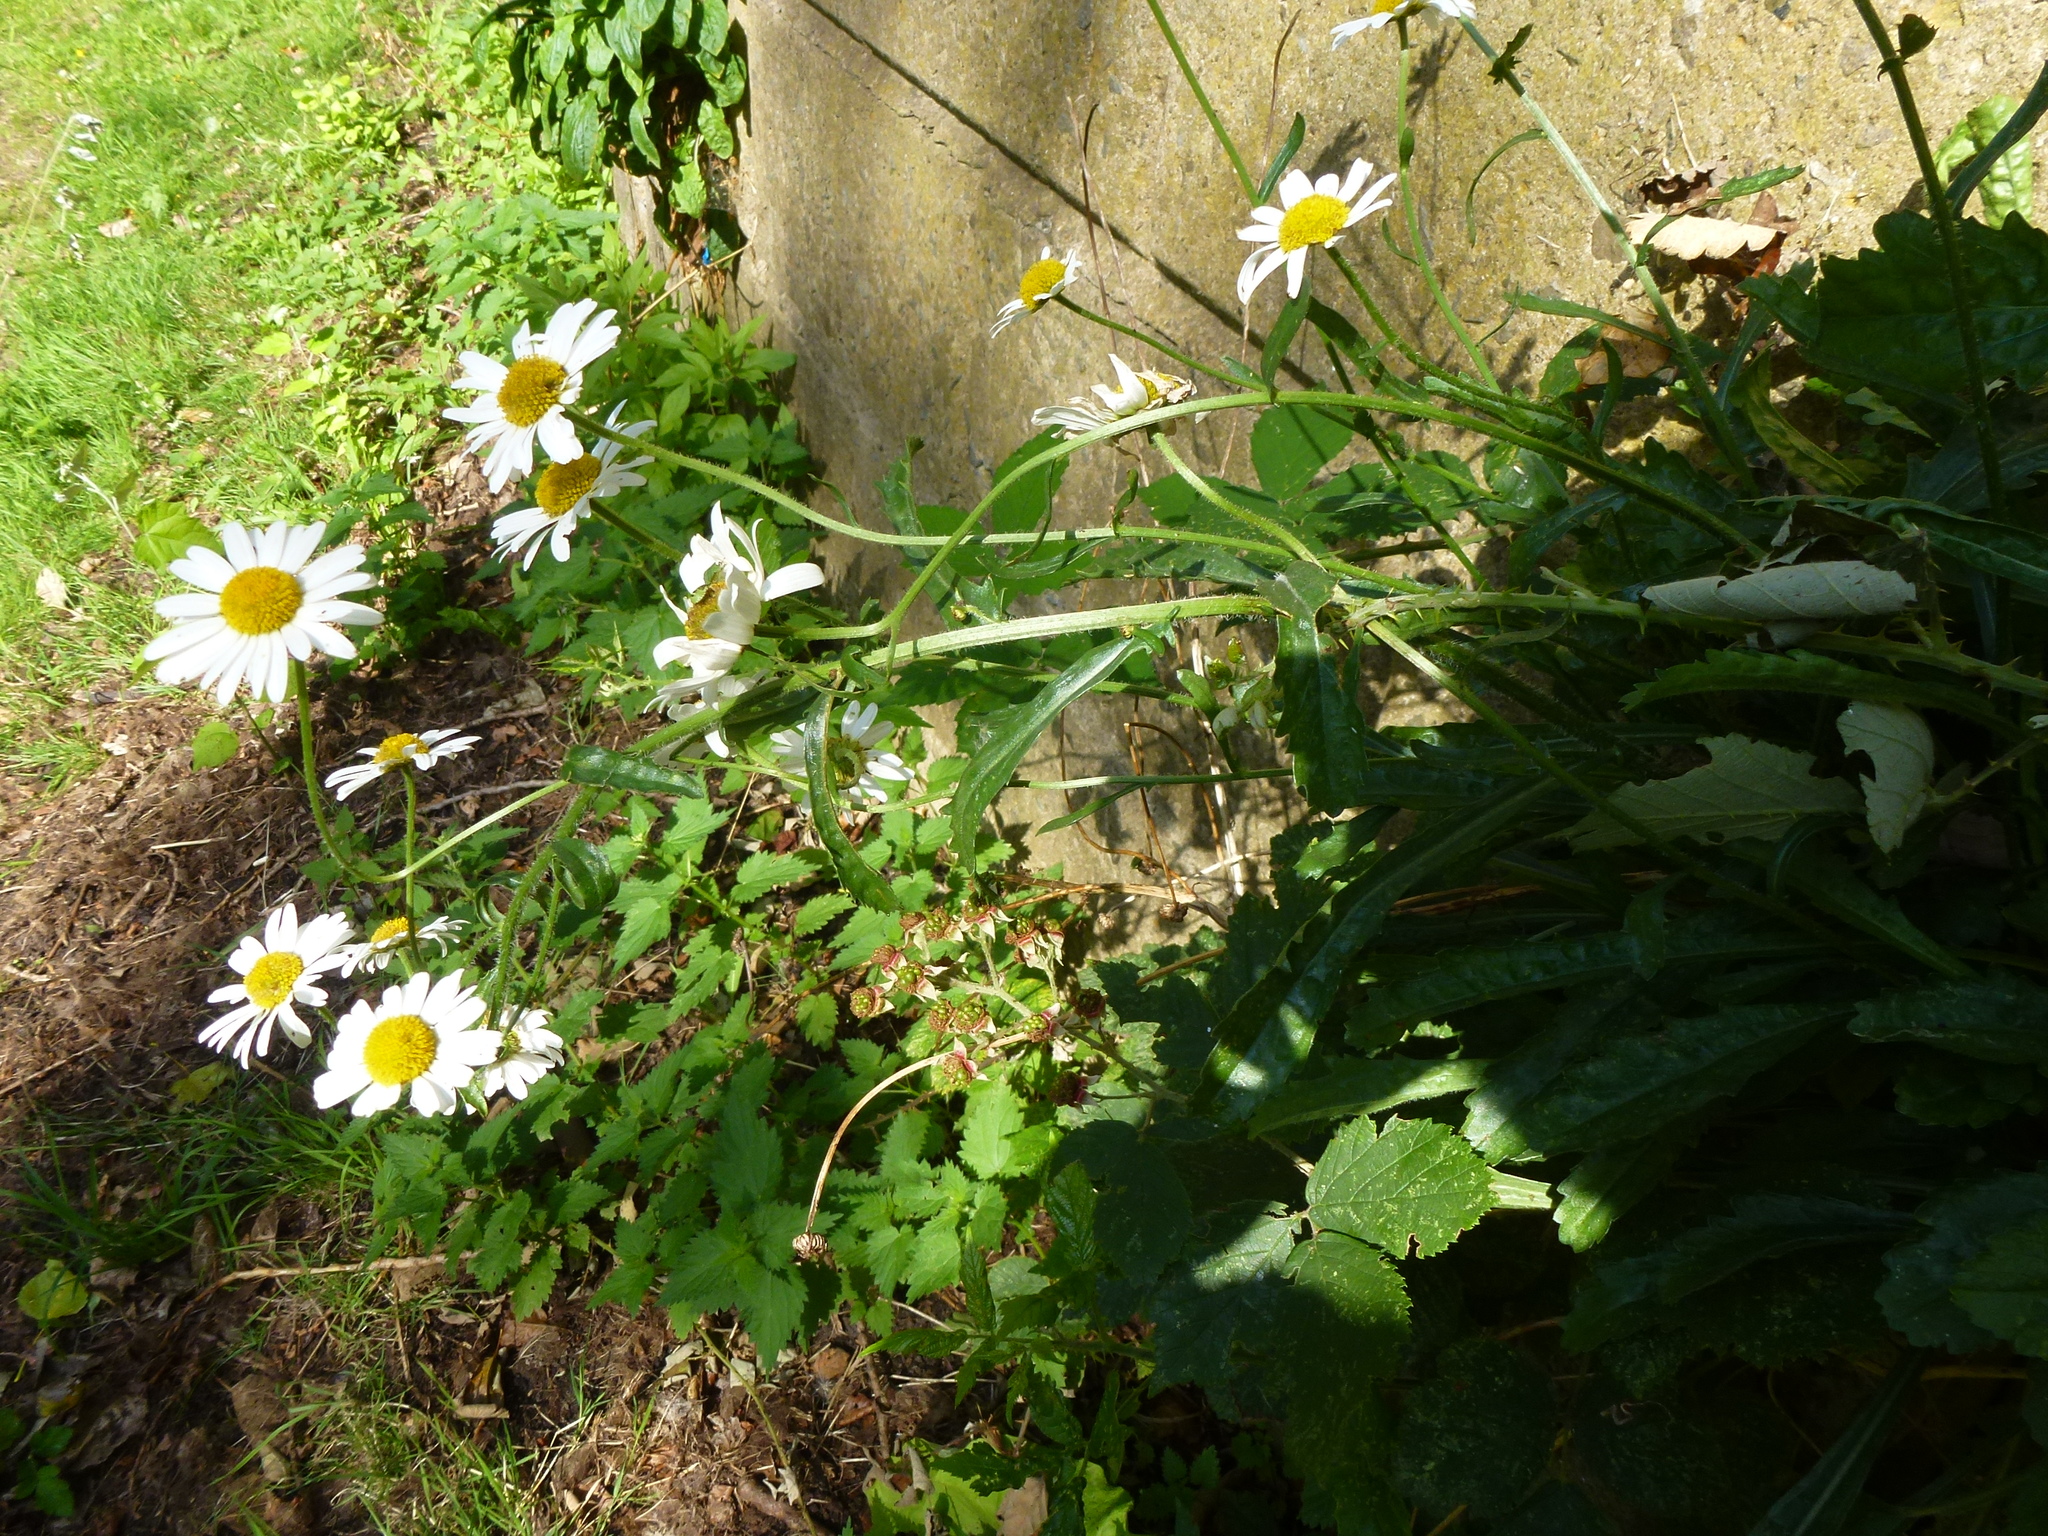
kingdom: Plantae
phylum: Tracheophyta
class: Magnoliopsida
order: Asterales
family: Asteraceae
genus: Leucanthemum
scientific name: Leucanthemum vulgare
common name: Oxeye daisy
